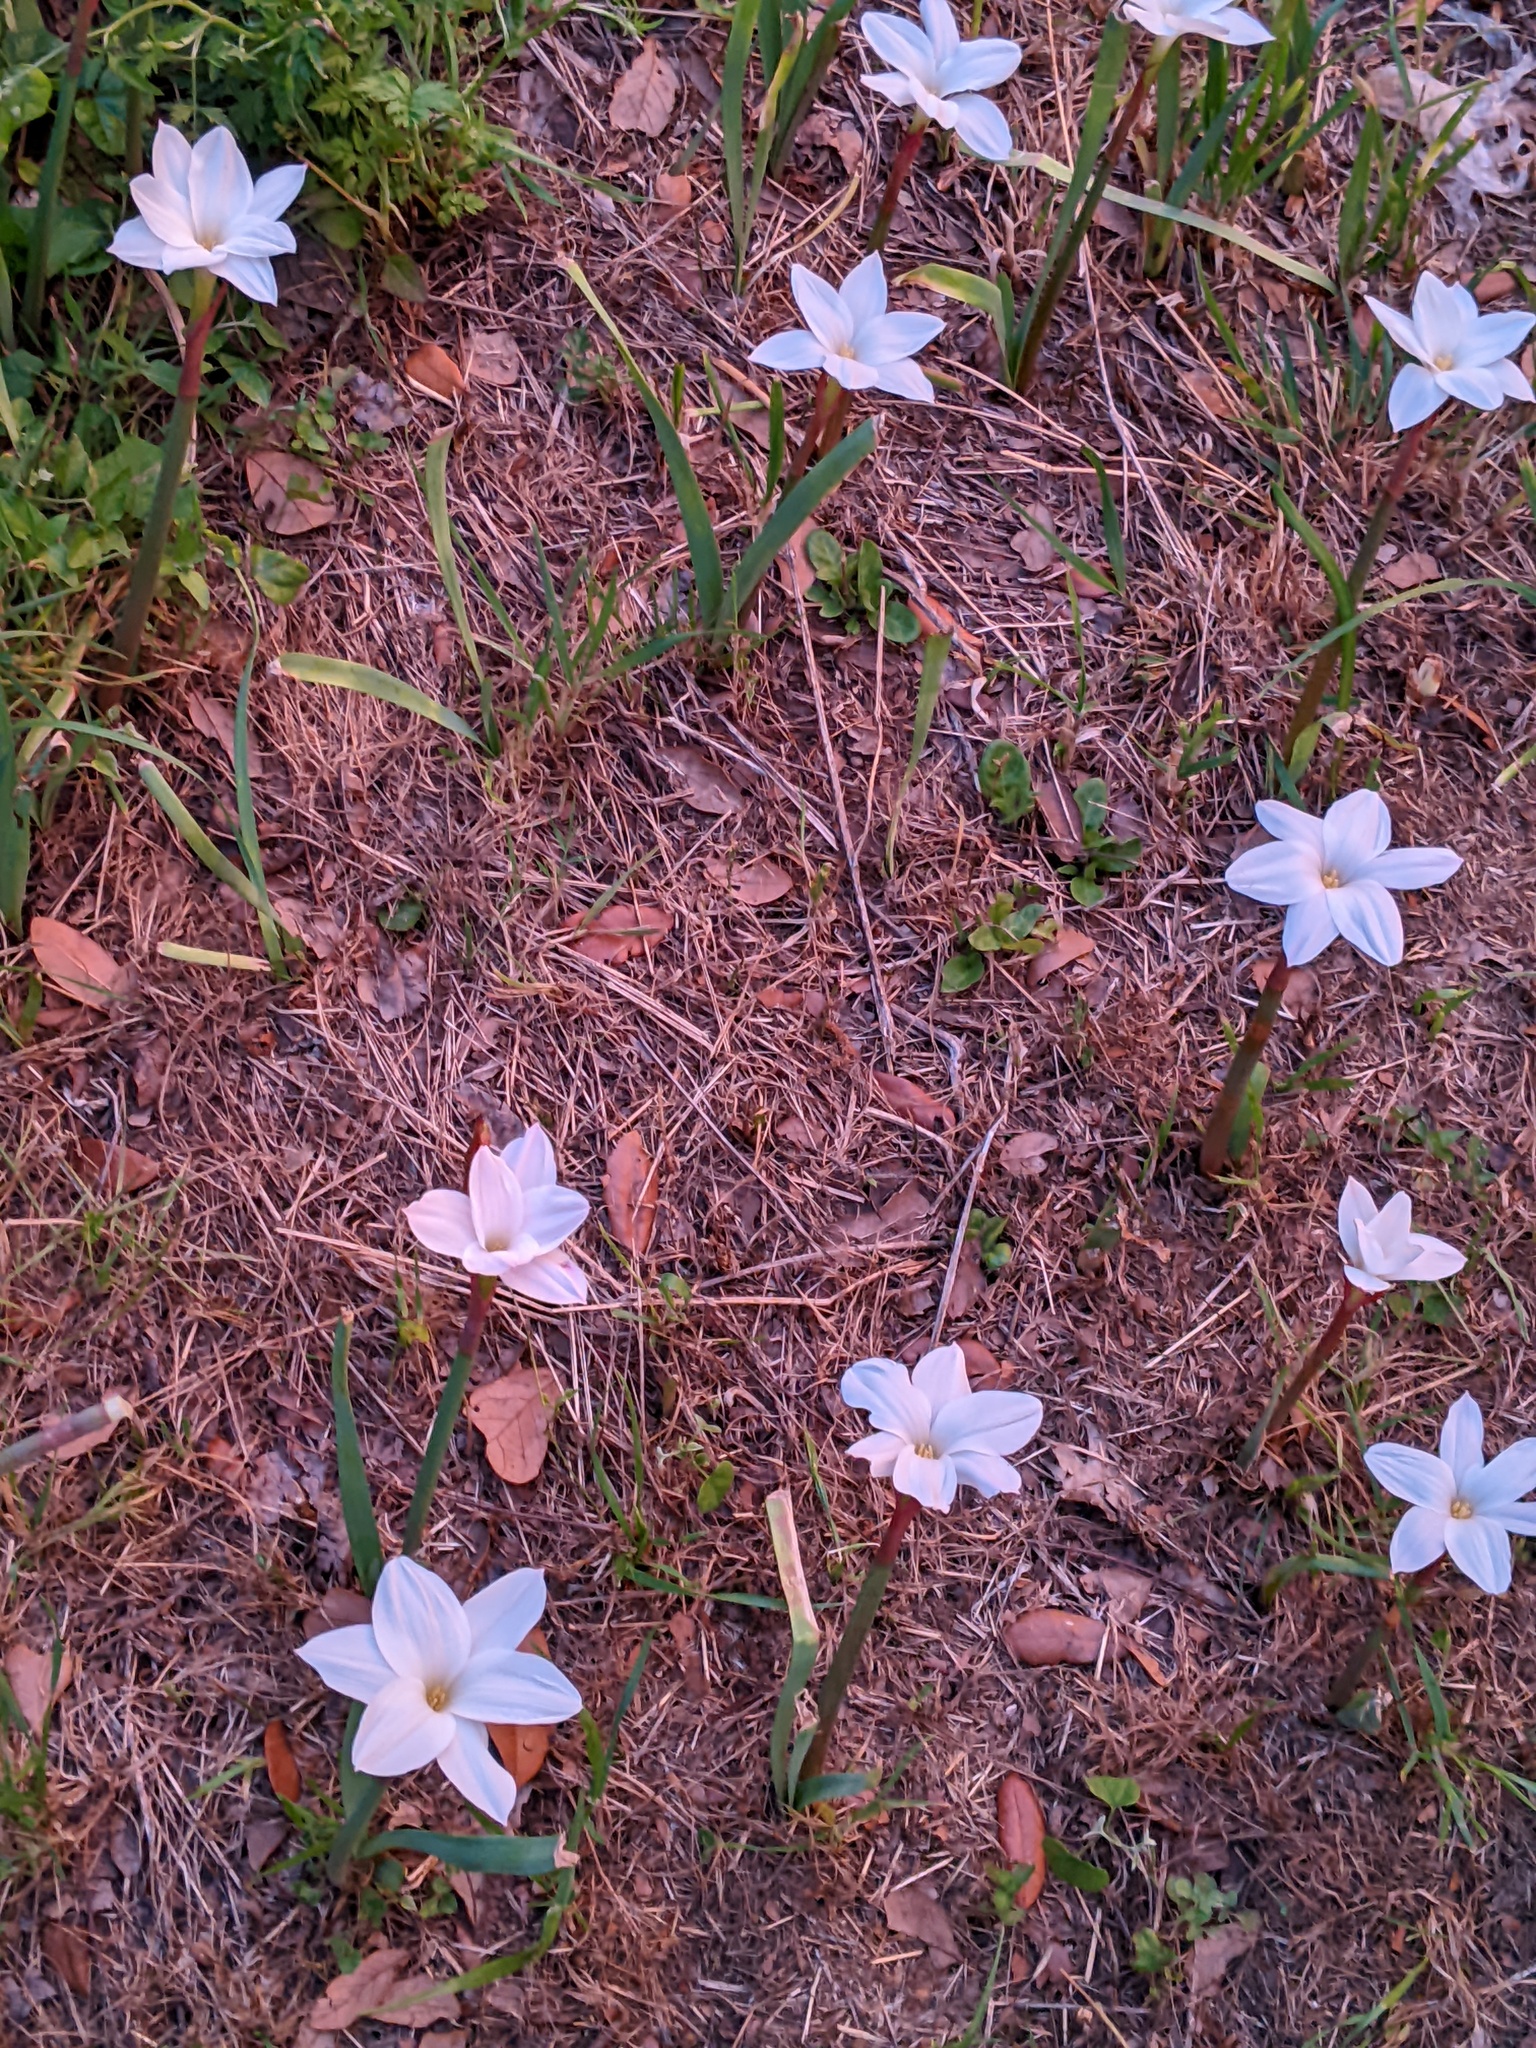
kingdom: Plantae
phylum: Tracheophyta
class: Liliopsida
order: Asparagales
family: Amaryllidaceae
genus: Zephyranthes
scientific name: Zephyranthes drummondii
